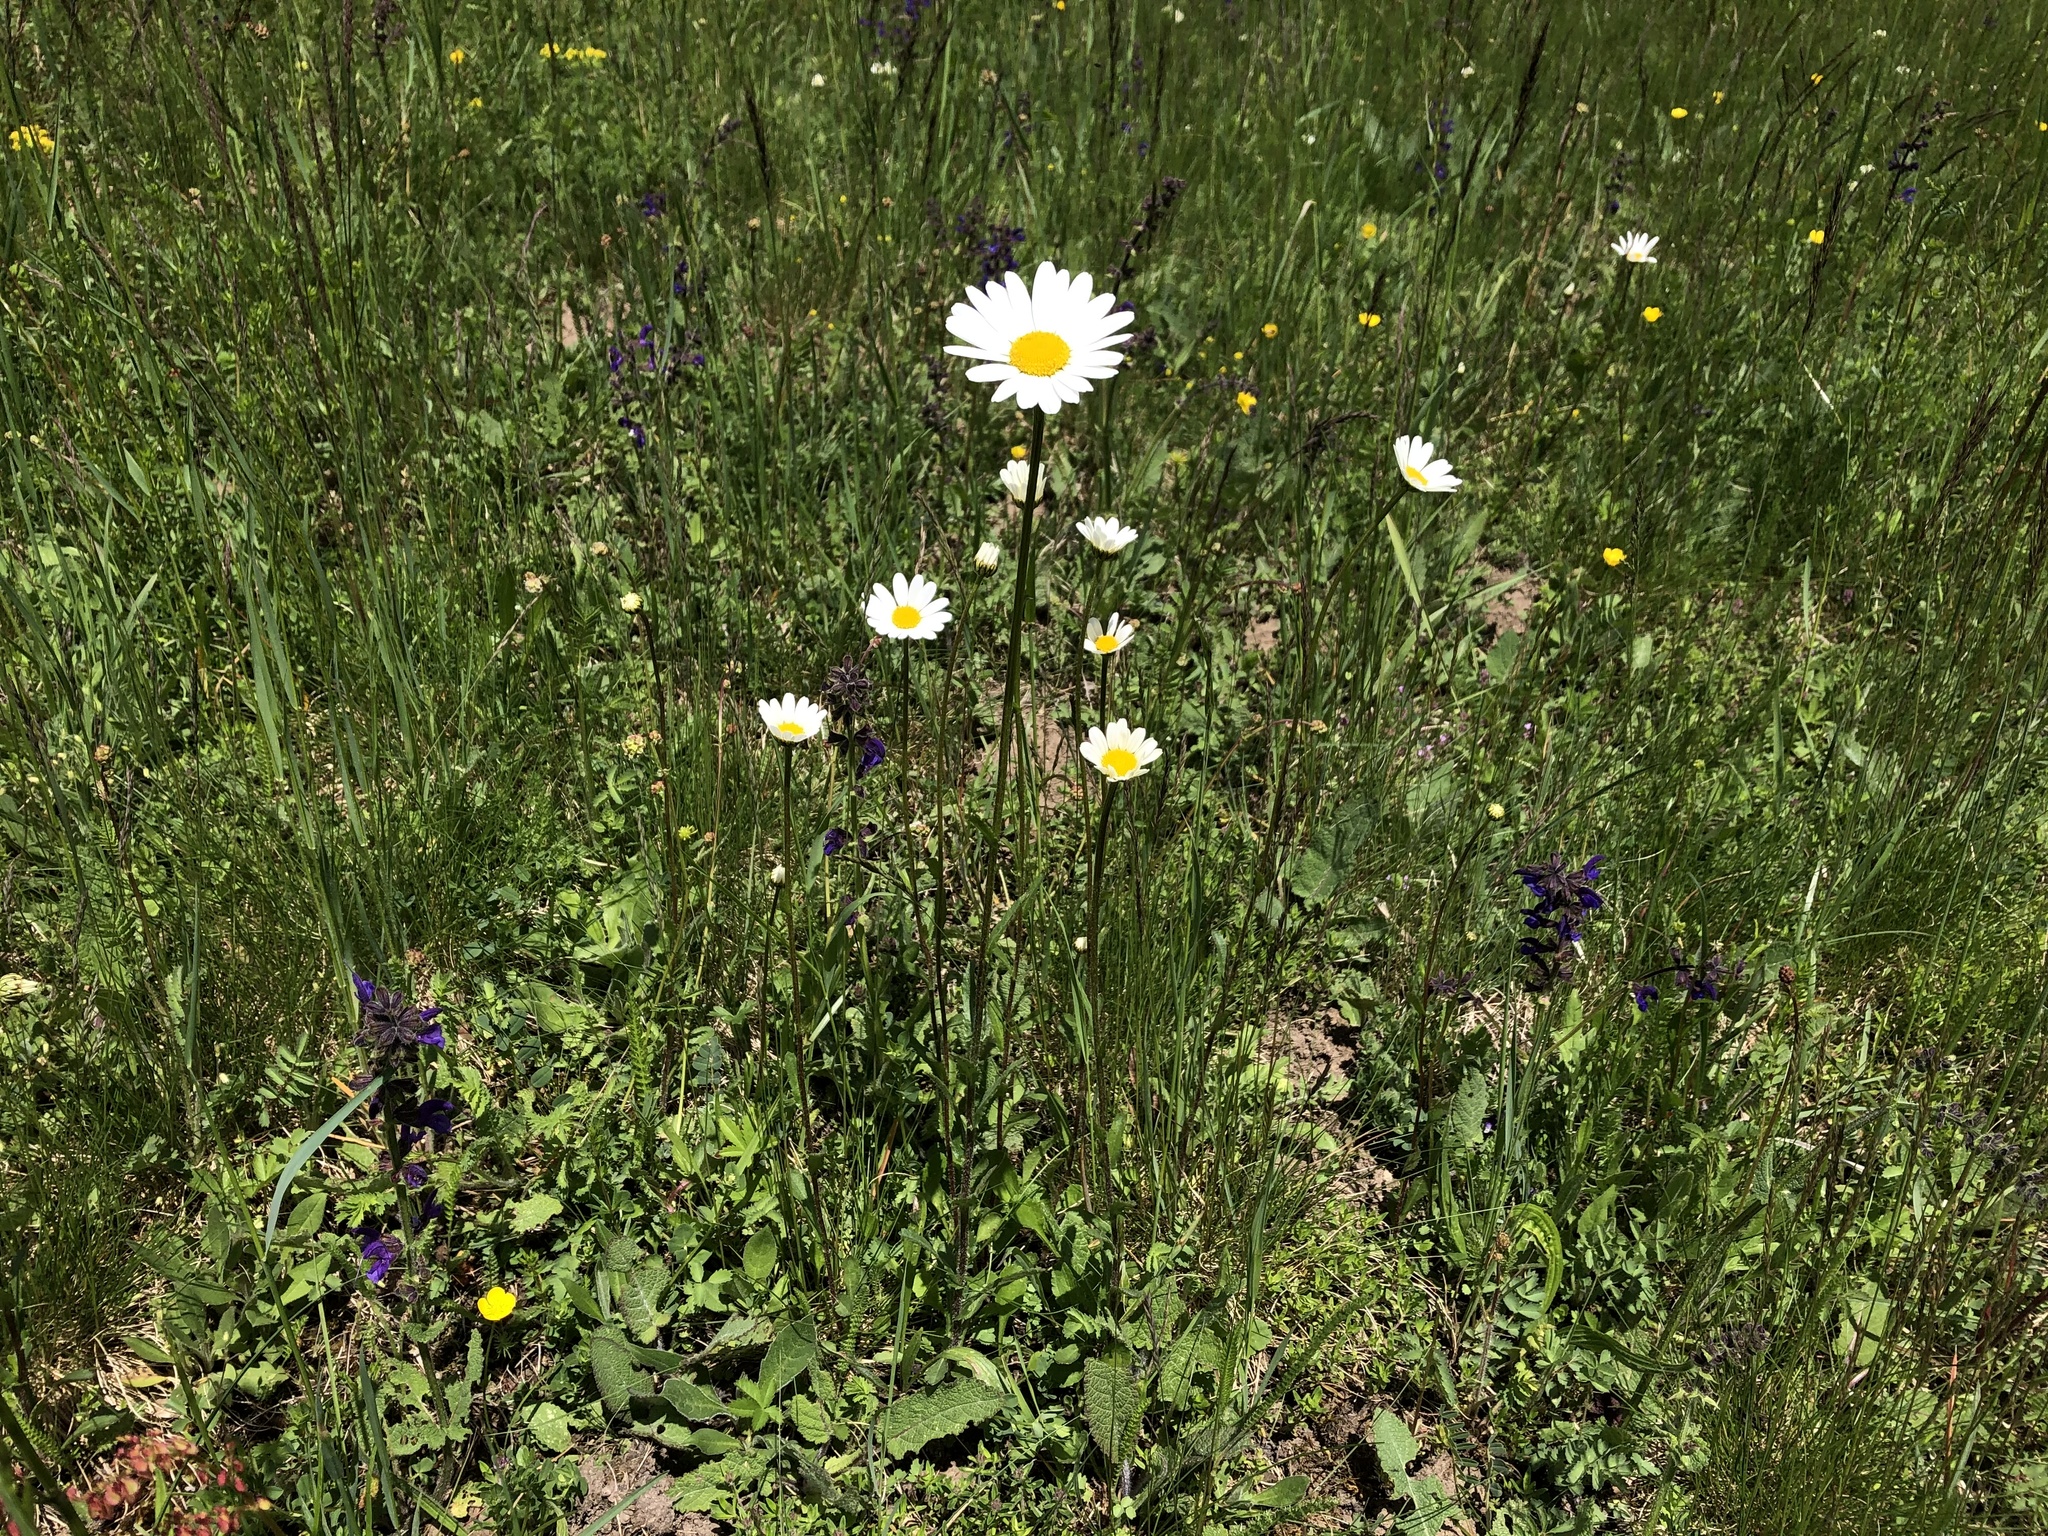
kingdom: Plantae
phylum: Tracheophyta
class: Magnoliopsida
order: Asterales
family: Asteraceae
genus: Leucanthemum
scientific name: Leucanthemum vulgare
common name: Oxeye daisy
